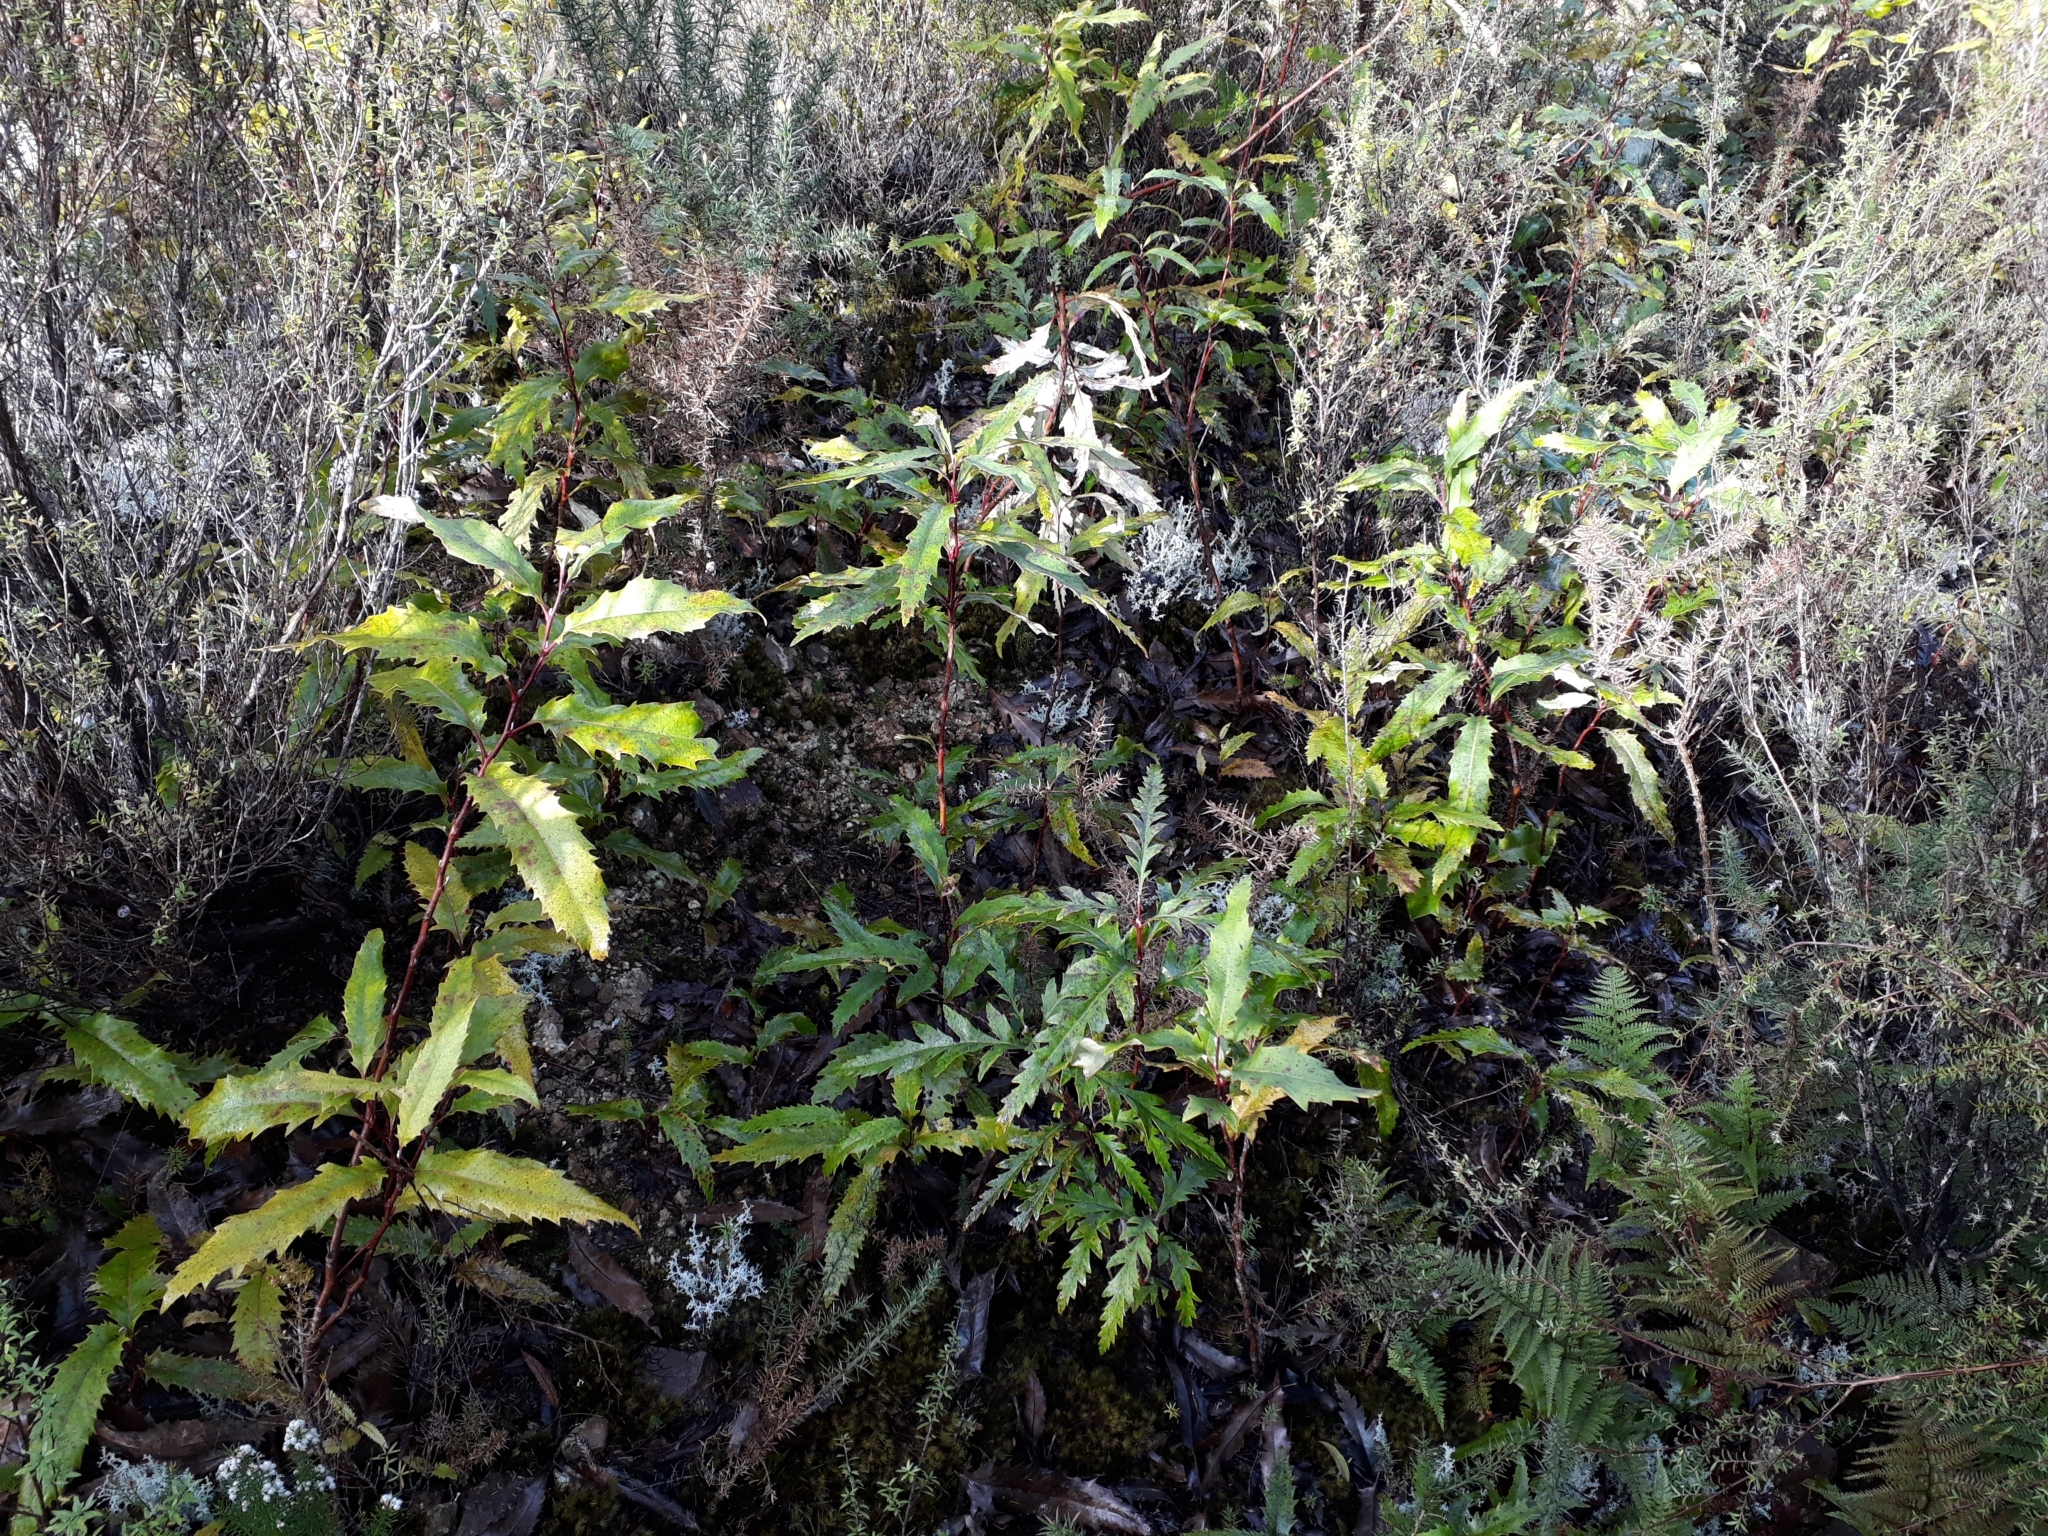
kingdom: Plantae
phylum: Tracheophyta
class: Magnoliopsida
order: Proteales
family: Proteaceae
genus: Lomatia
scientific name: Lomatia fraseri
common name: Forest lomatia
